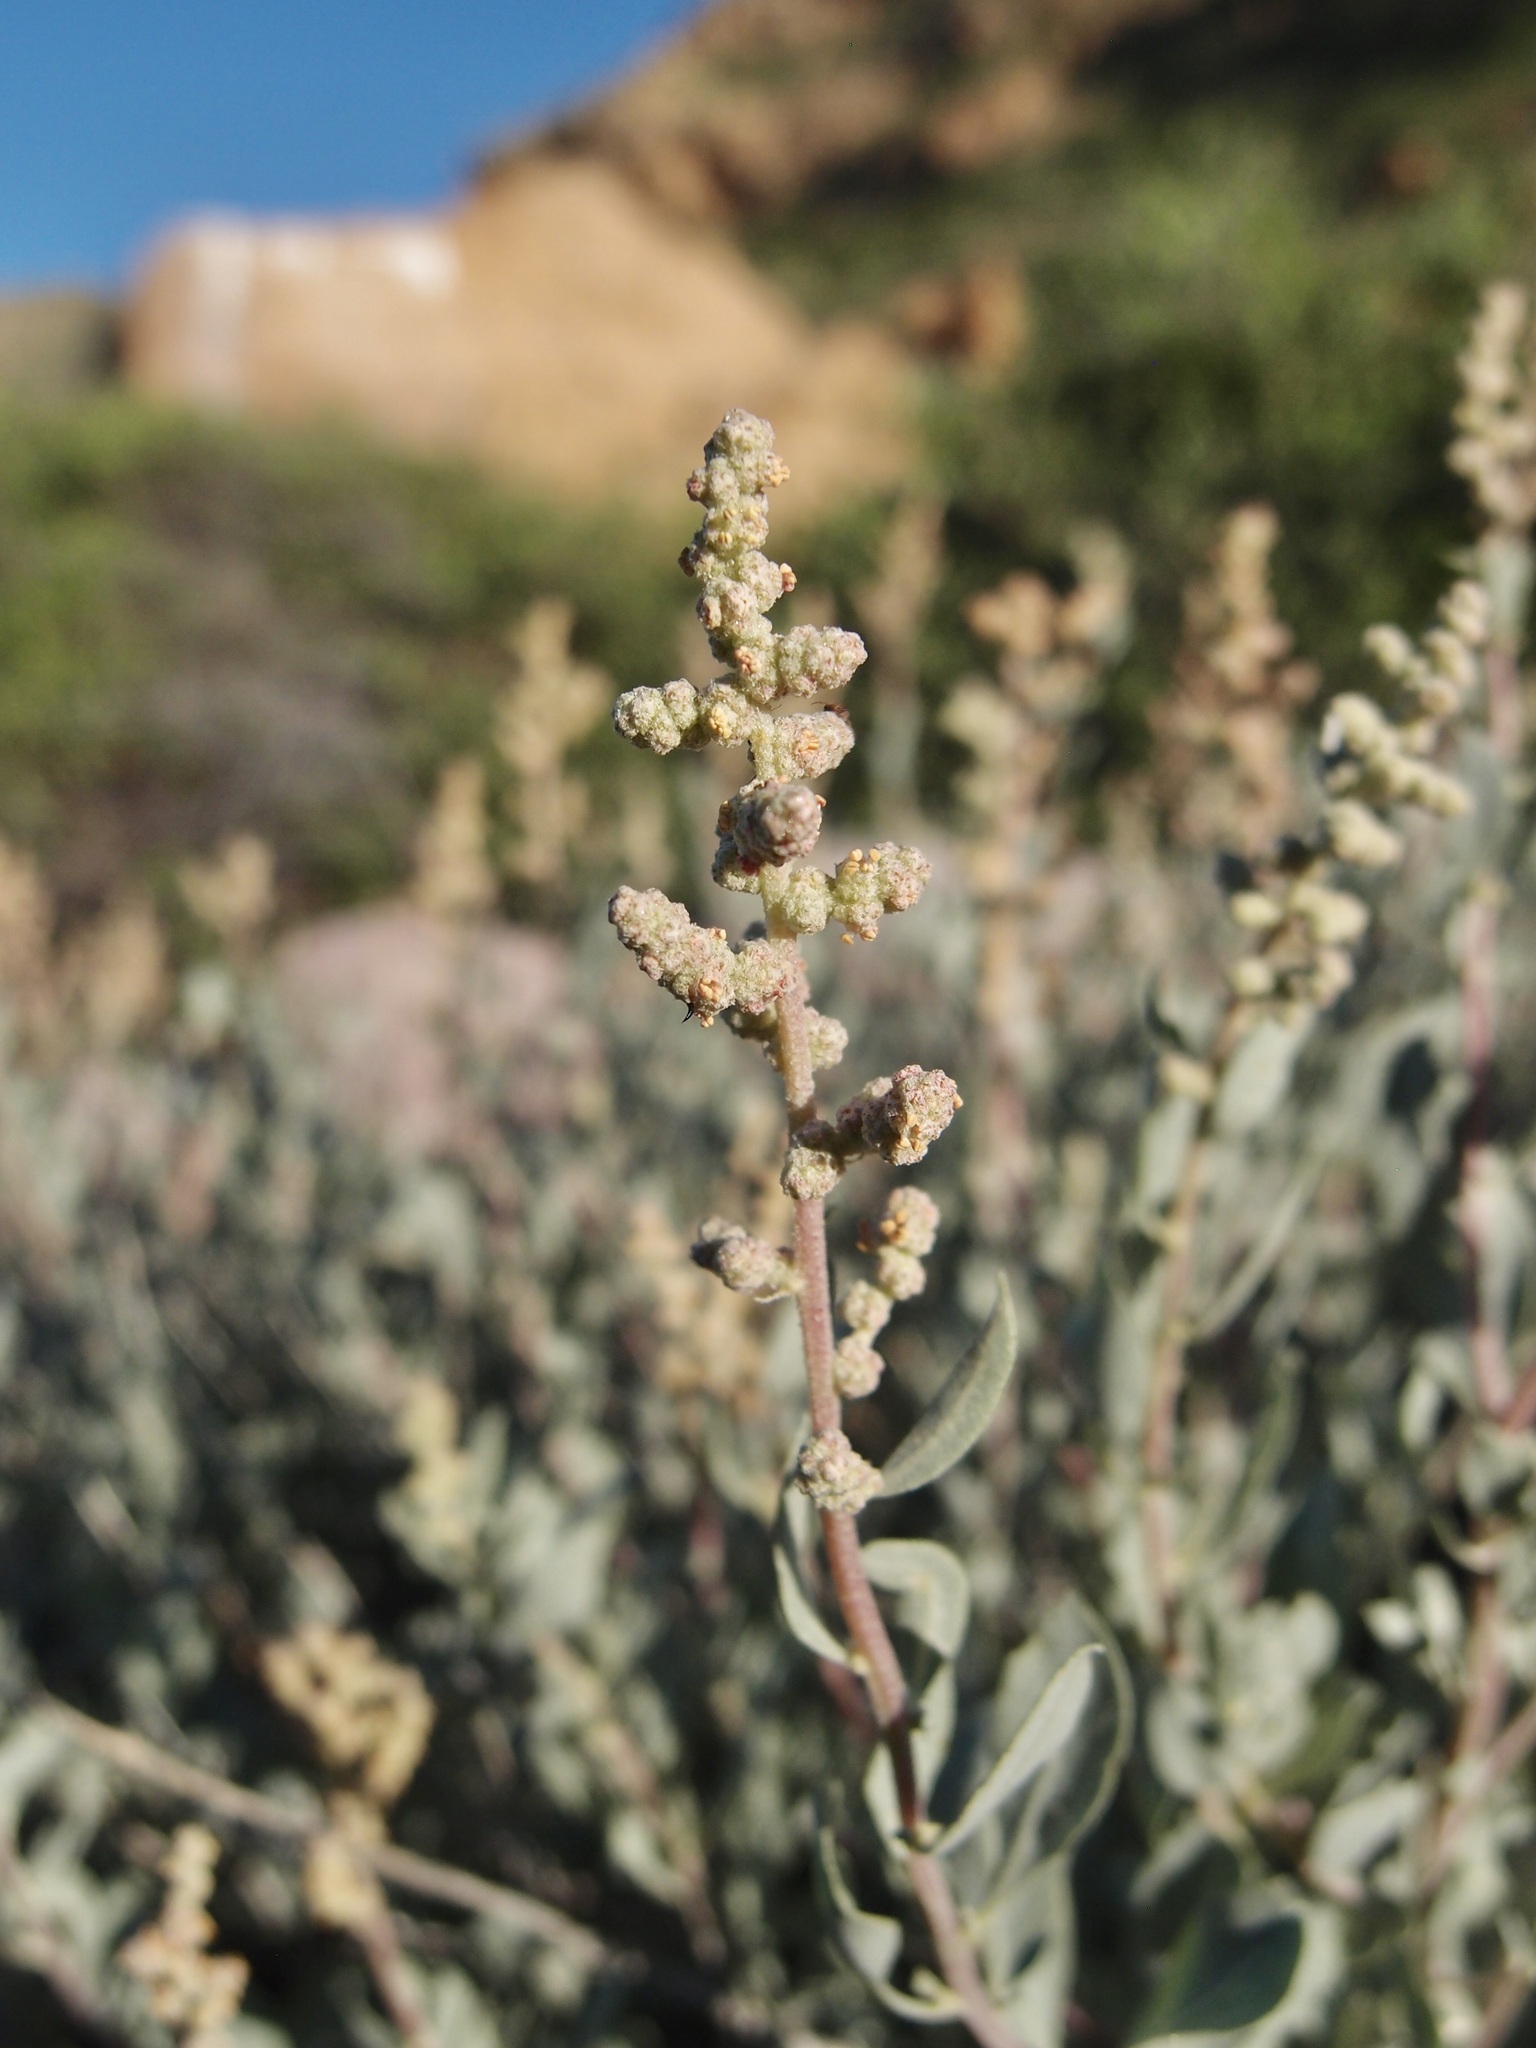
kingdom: Plantae
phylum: Tracheophyta
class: Magnoliopsida
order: Caryophyllales
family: Amaranthaceae
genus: Atriplex
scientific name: Atriplex barclayana
